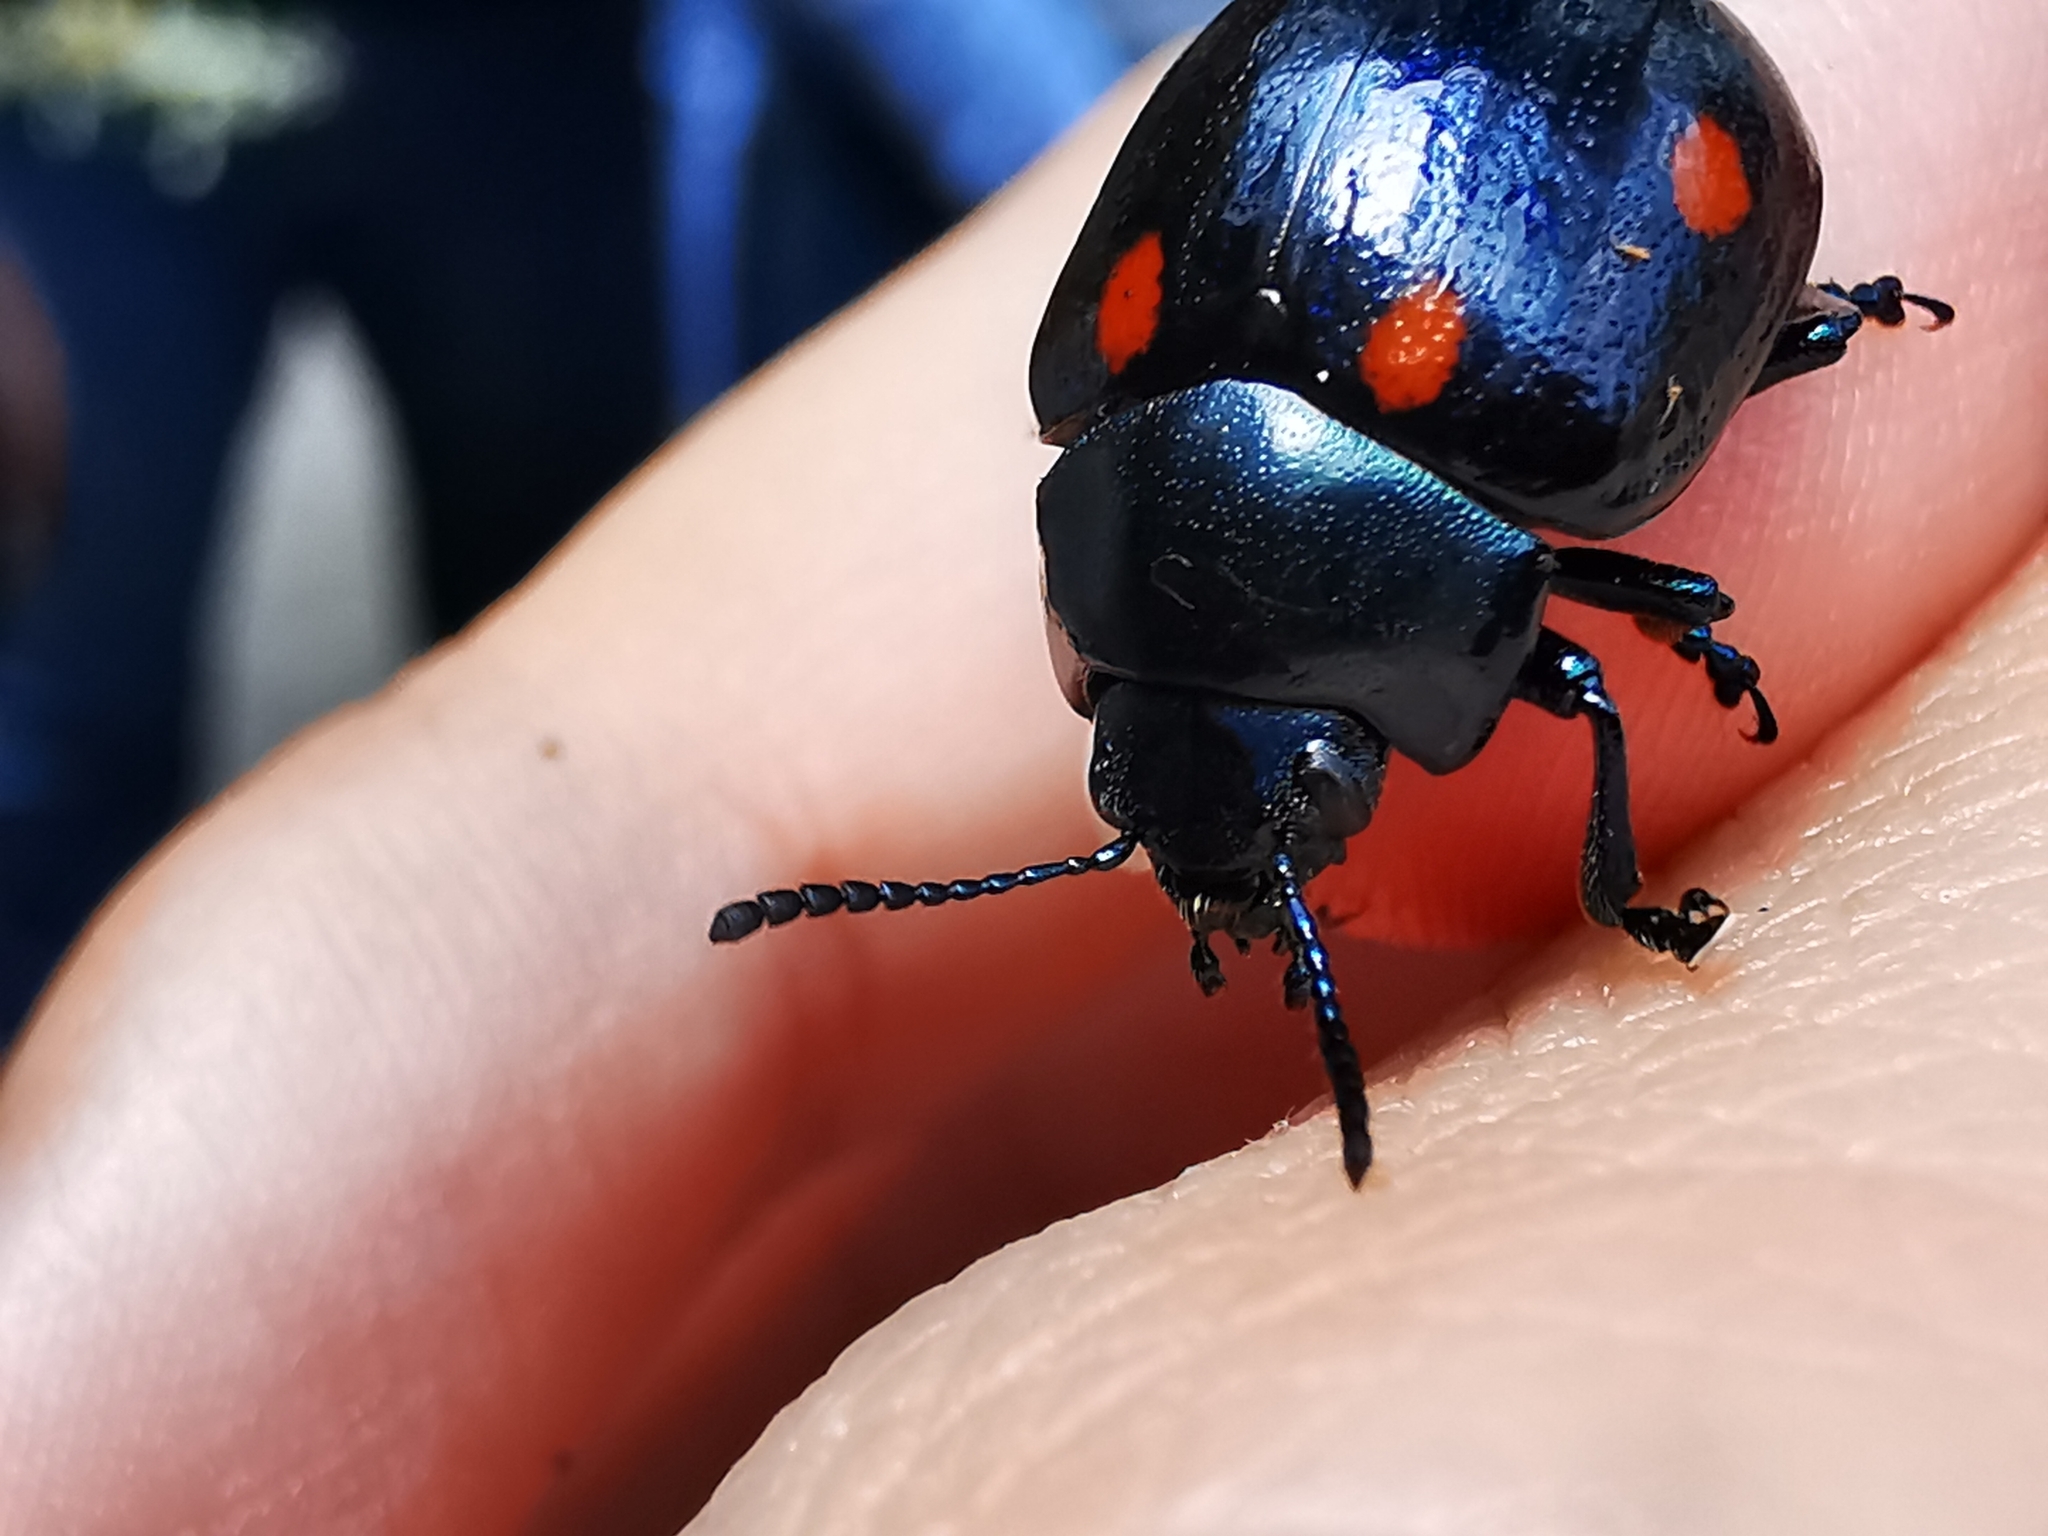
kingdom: Animalia
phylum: Arthropoda
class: Insecta
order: Coleoptera
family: Chrysomelidae
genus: Labidomera
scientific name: Labidomera
